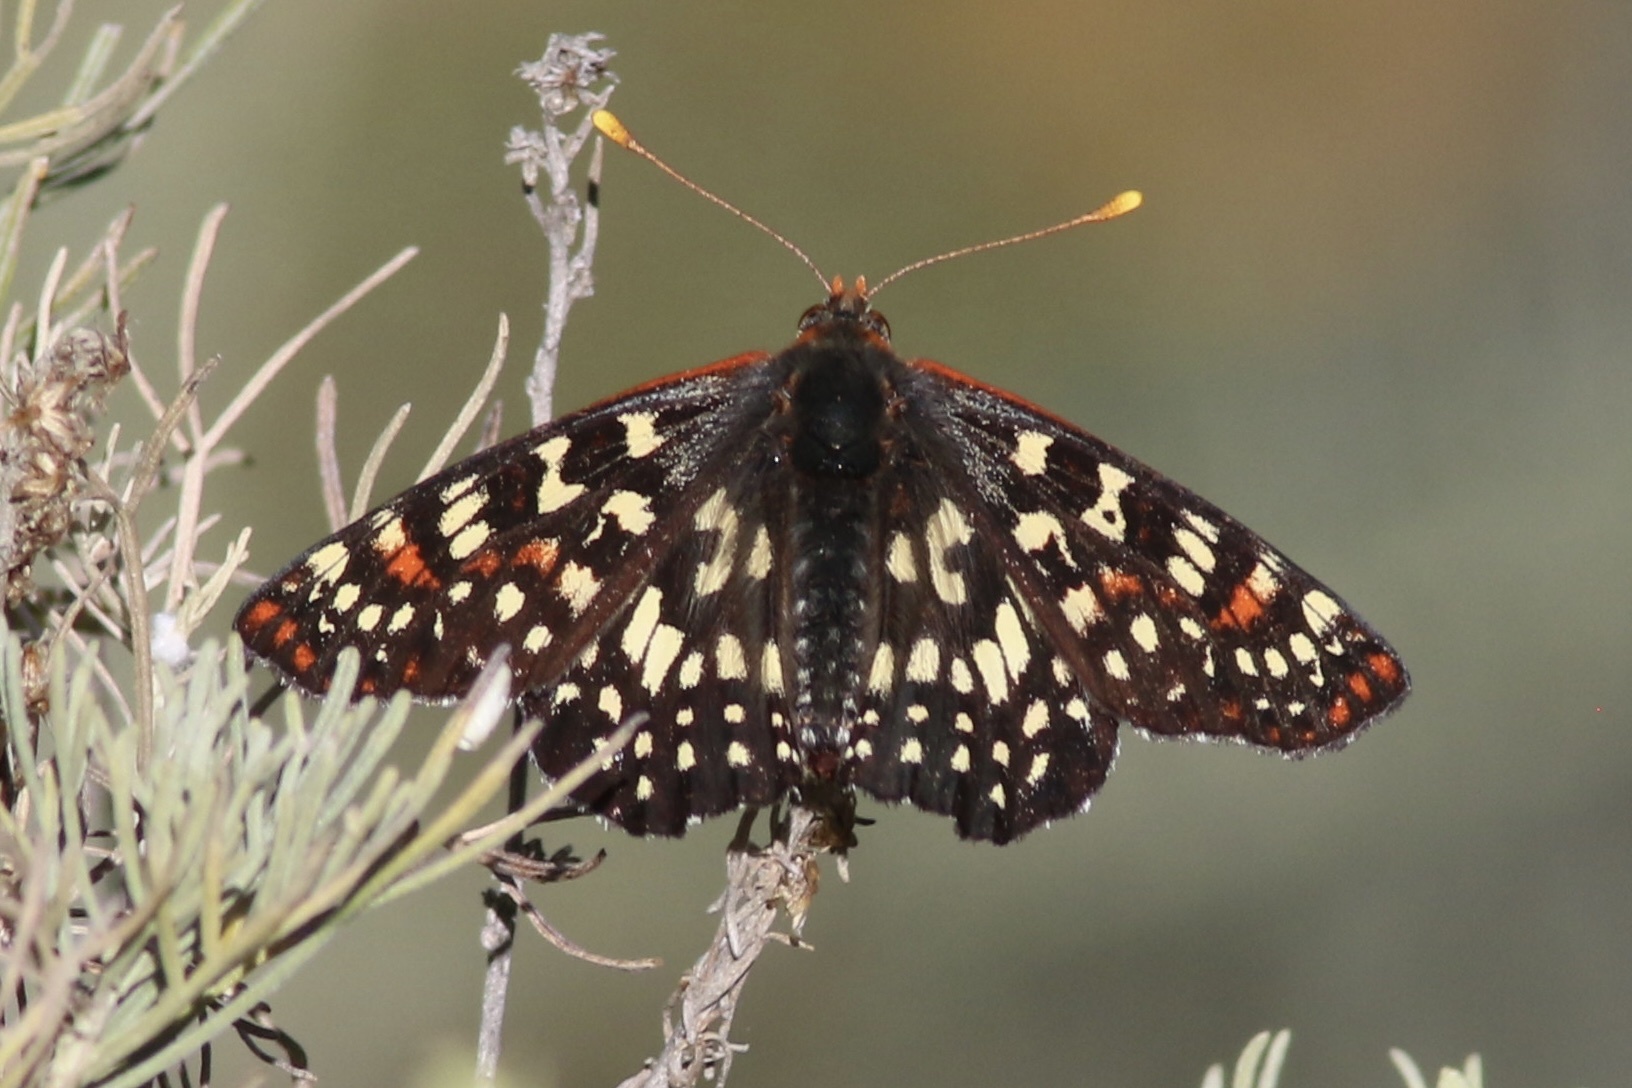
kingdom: Animalia
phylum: Arthropoda
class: Insecta
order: Lepidoptera
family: Nymphalidae
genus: Occidryas
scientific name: Occidryas chalcedona
